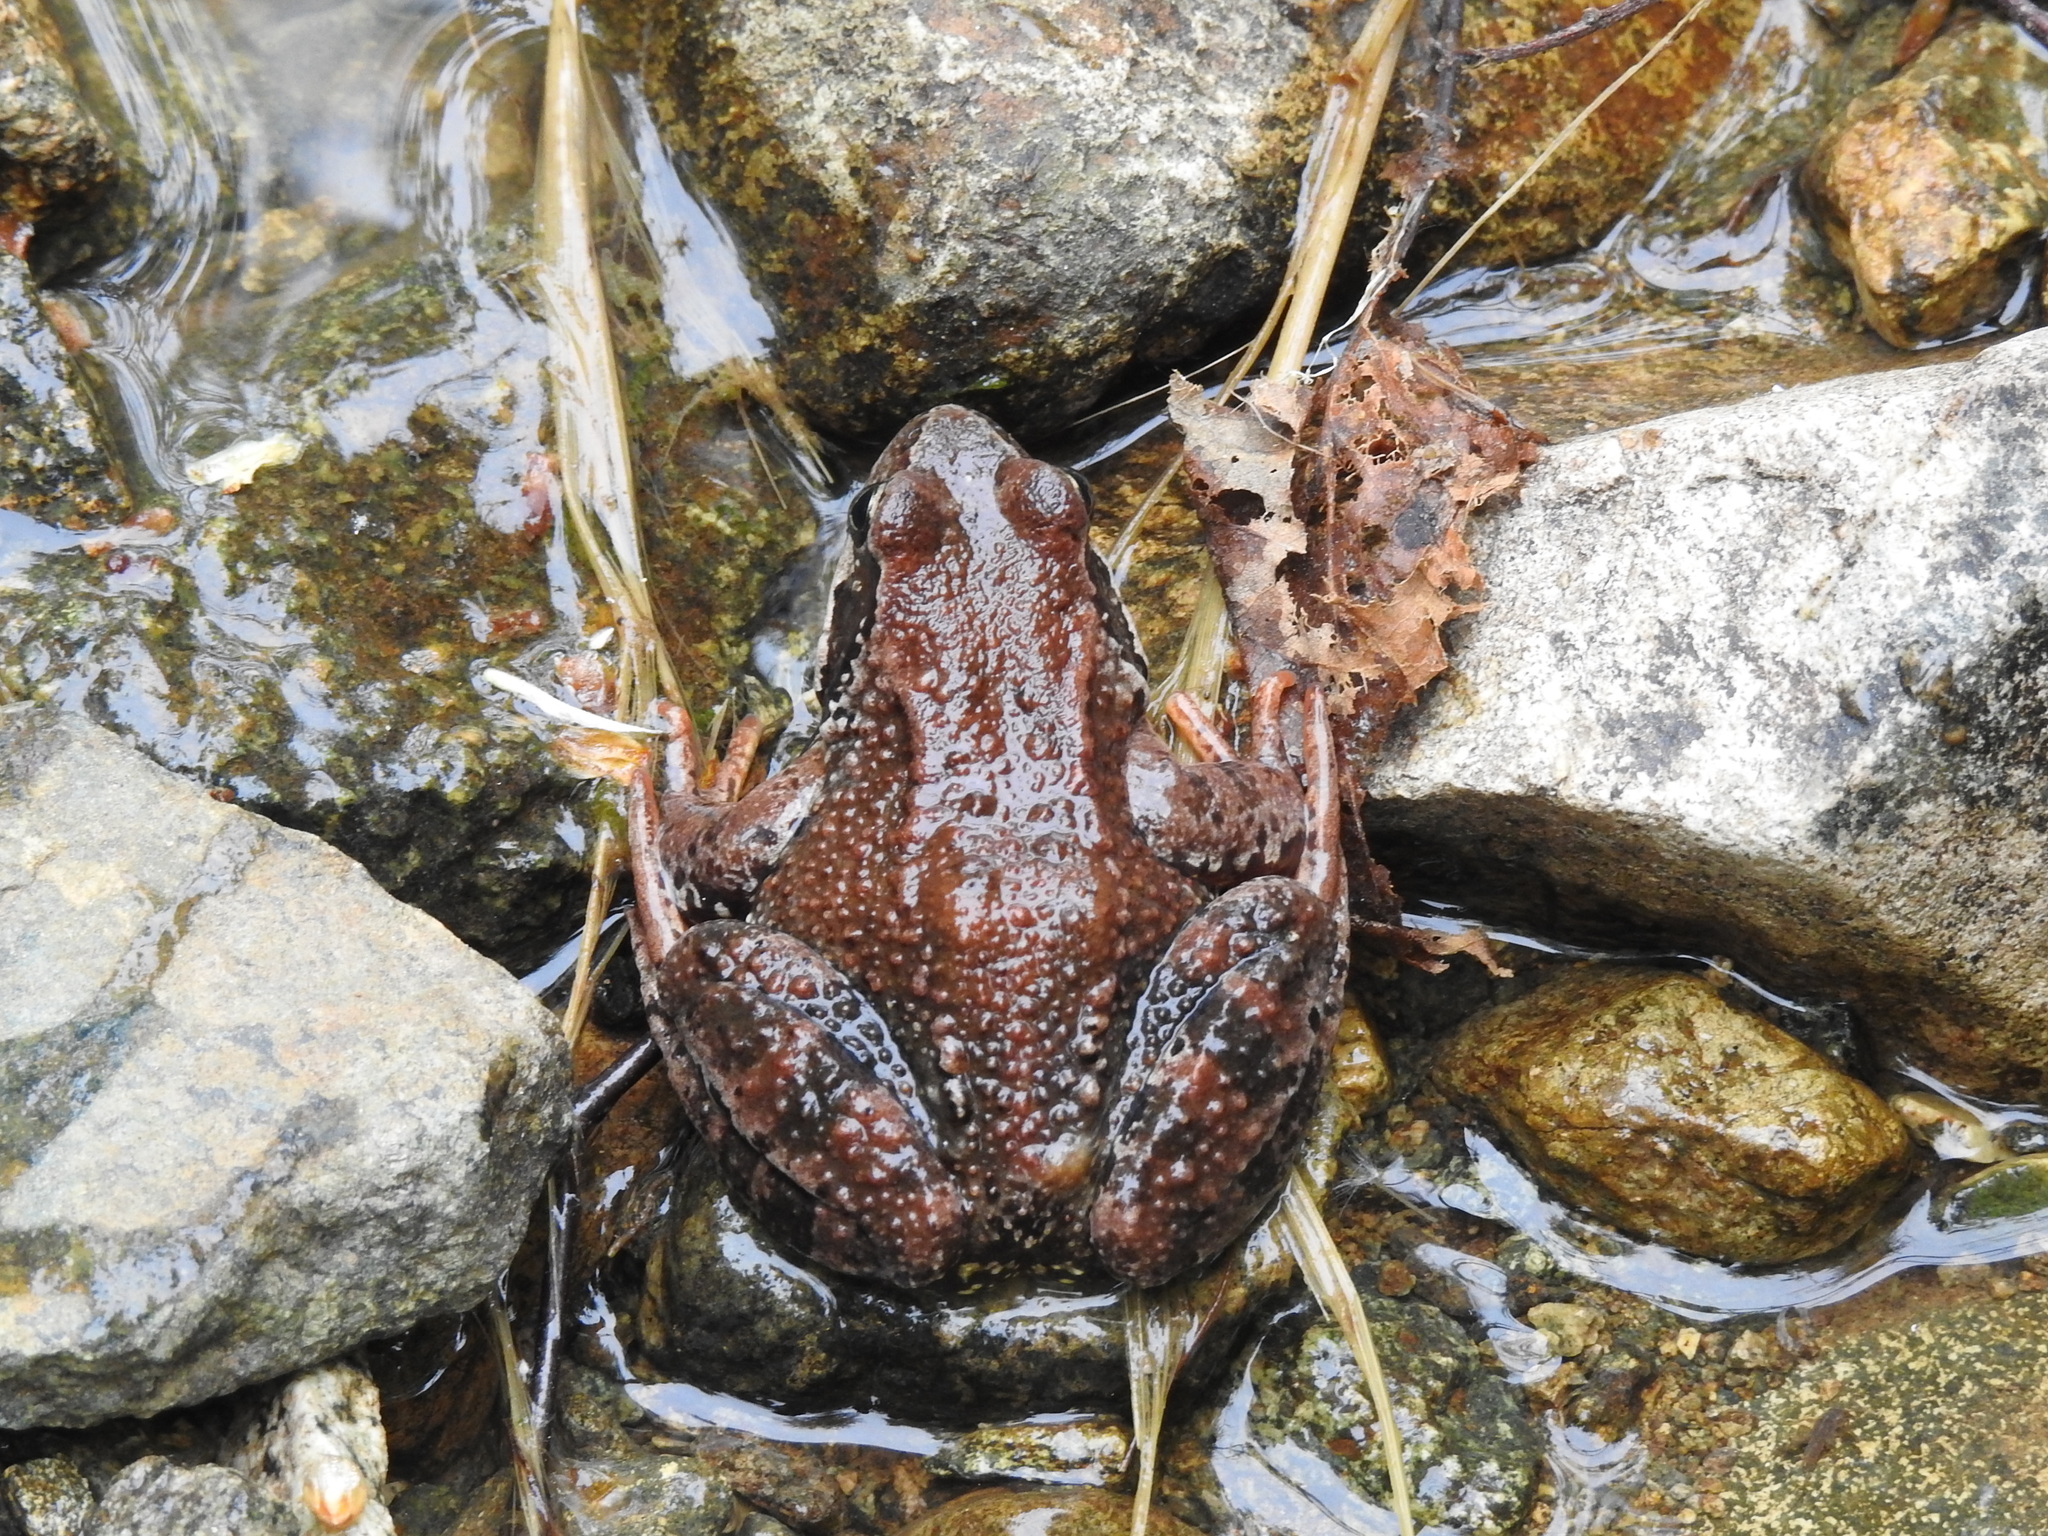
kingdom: Animalia
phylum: Chordata
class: Amphibia
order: Anura
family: Ranidae
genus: Rana
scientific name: Rana temporaria
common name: Common frog
